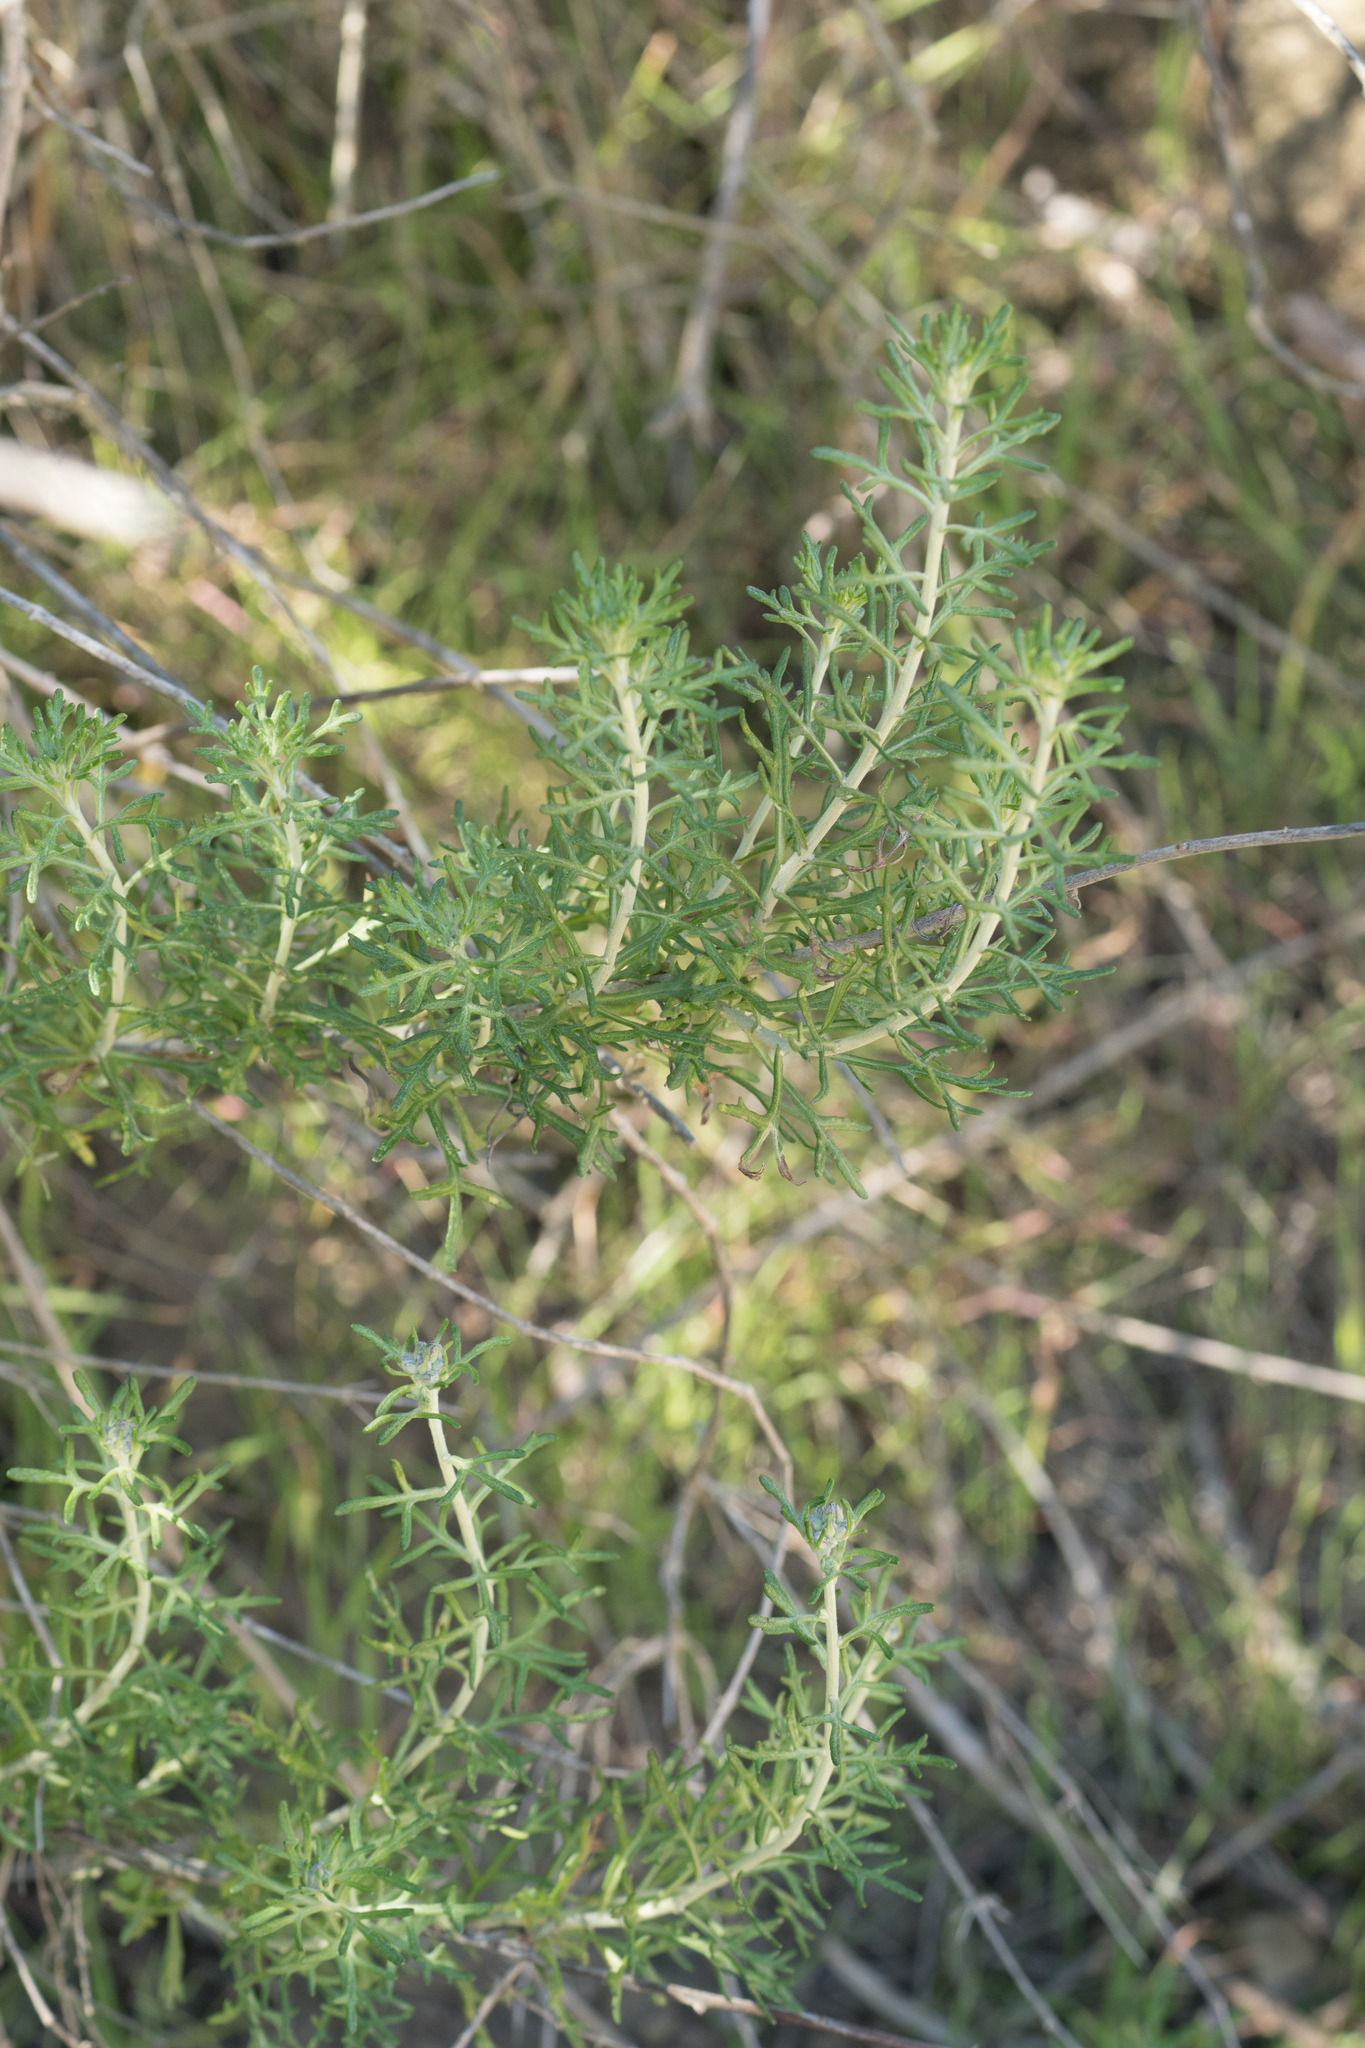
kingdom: Plantae
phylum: Tracheophyta
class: Magnoliopsida
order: Asterales
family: Asteraceae
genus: Eriophyllum
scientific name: Eriophyllum confertiflorum
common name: Golden-yarrow
